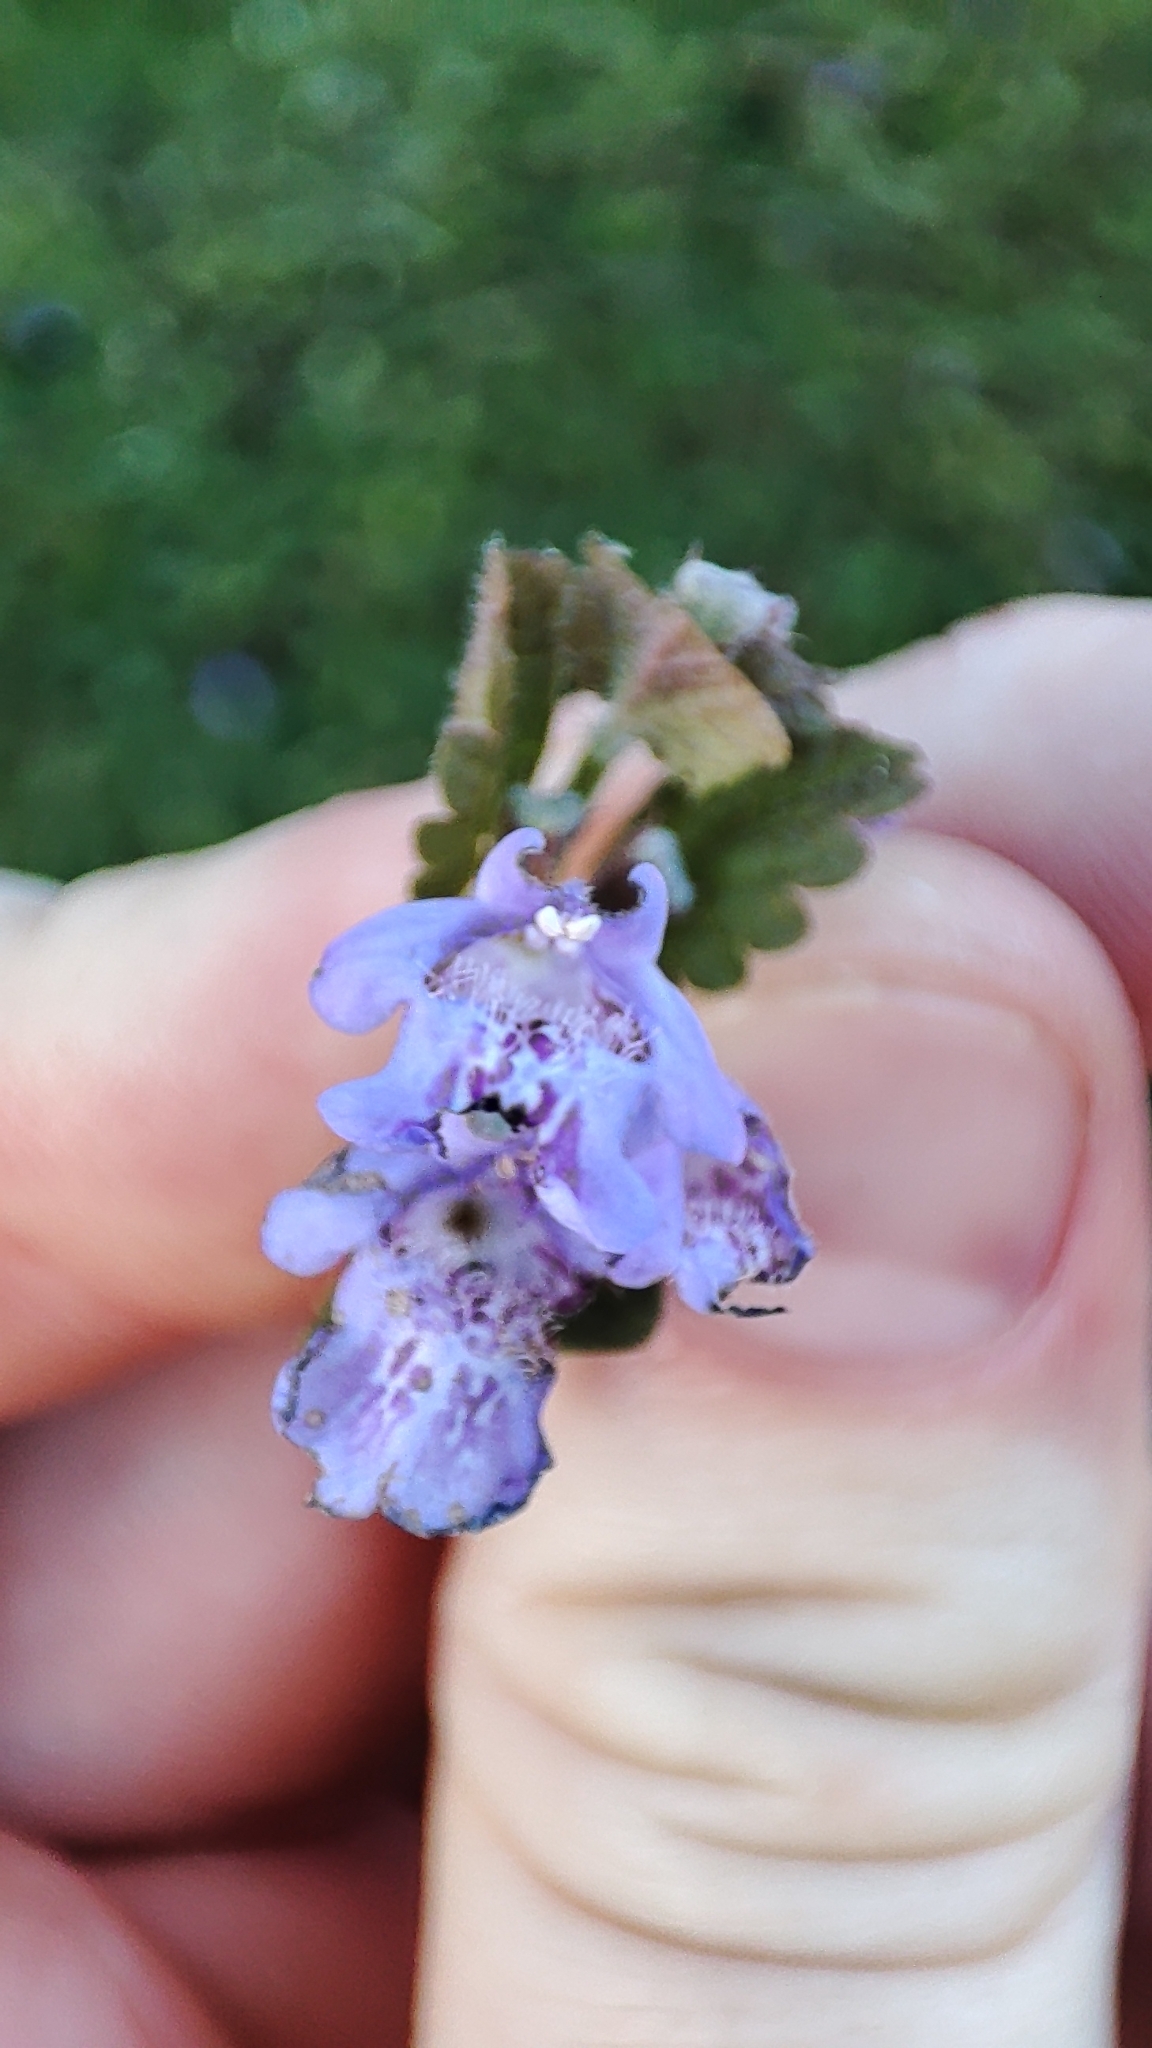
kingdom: Plantae
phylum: Tracheophyta
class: Magnoliopsida
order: Lamiales
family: Lamiaceae
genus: Glechoma
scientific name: Glechoma hederacea
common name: Ground ivy
